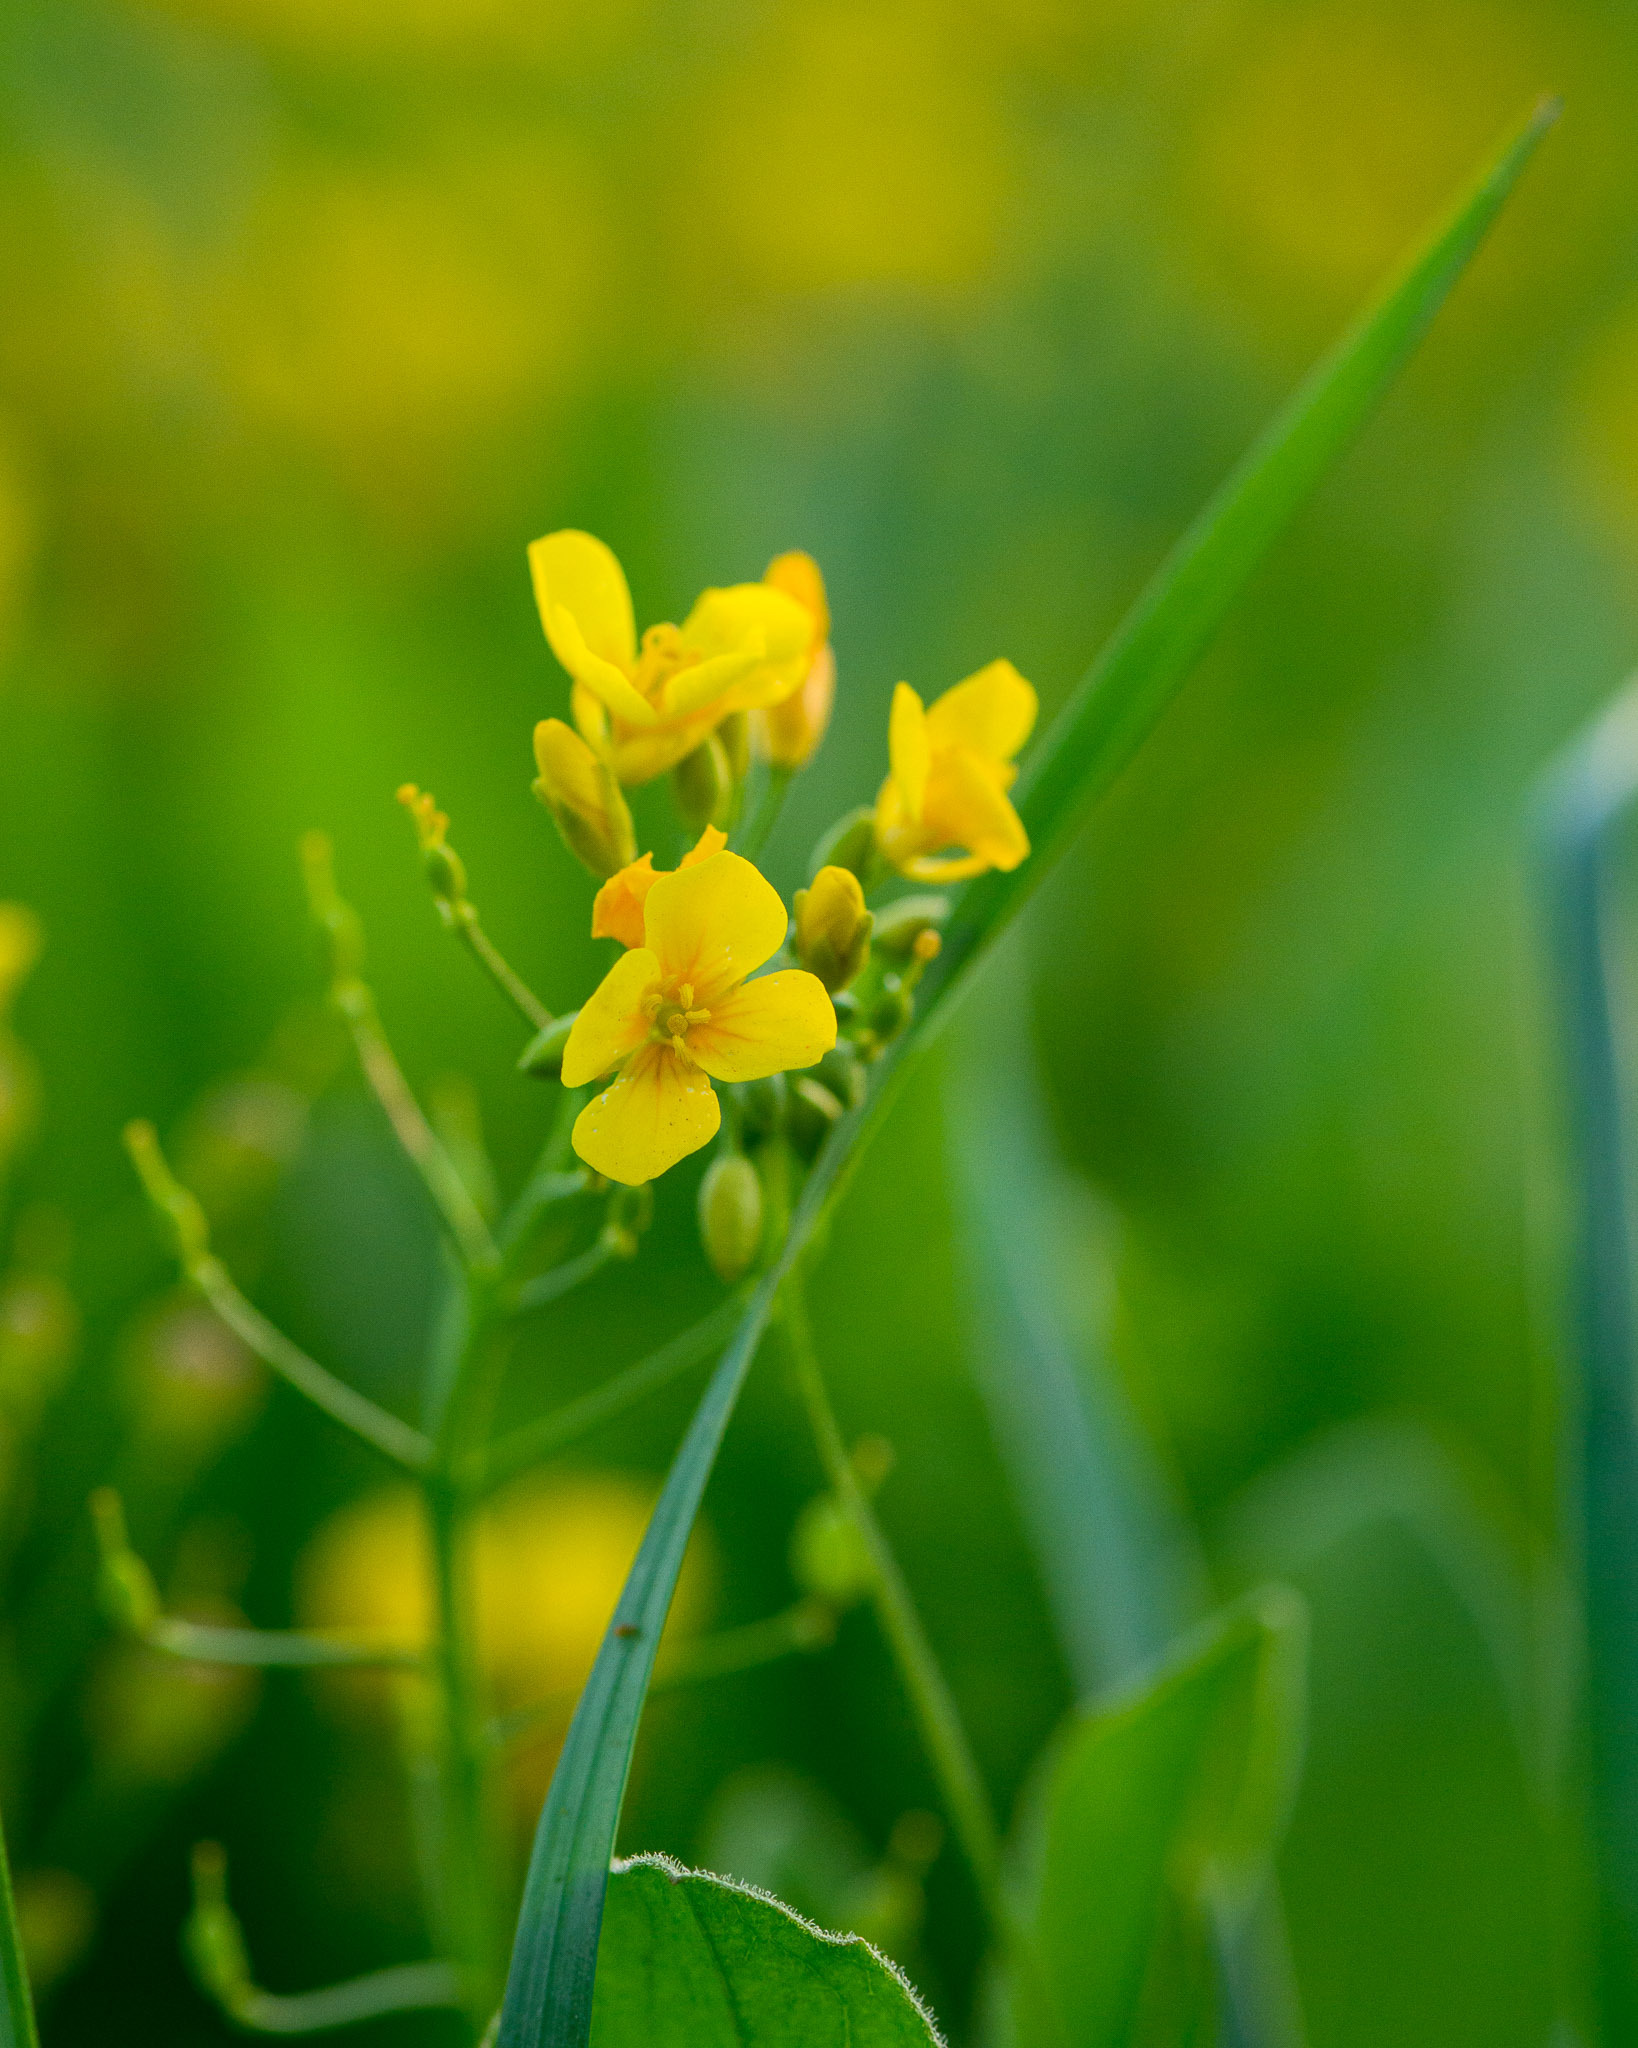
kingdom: Plantae
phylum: Tracheophyta
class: Magnoliopsida
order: Brassicales
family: Brassicaceae
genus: Physaria
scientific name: Physaria gracilis
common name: Spreading bladderpod
